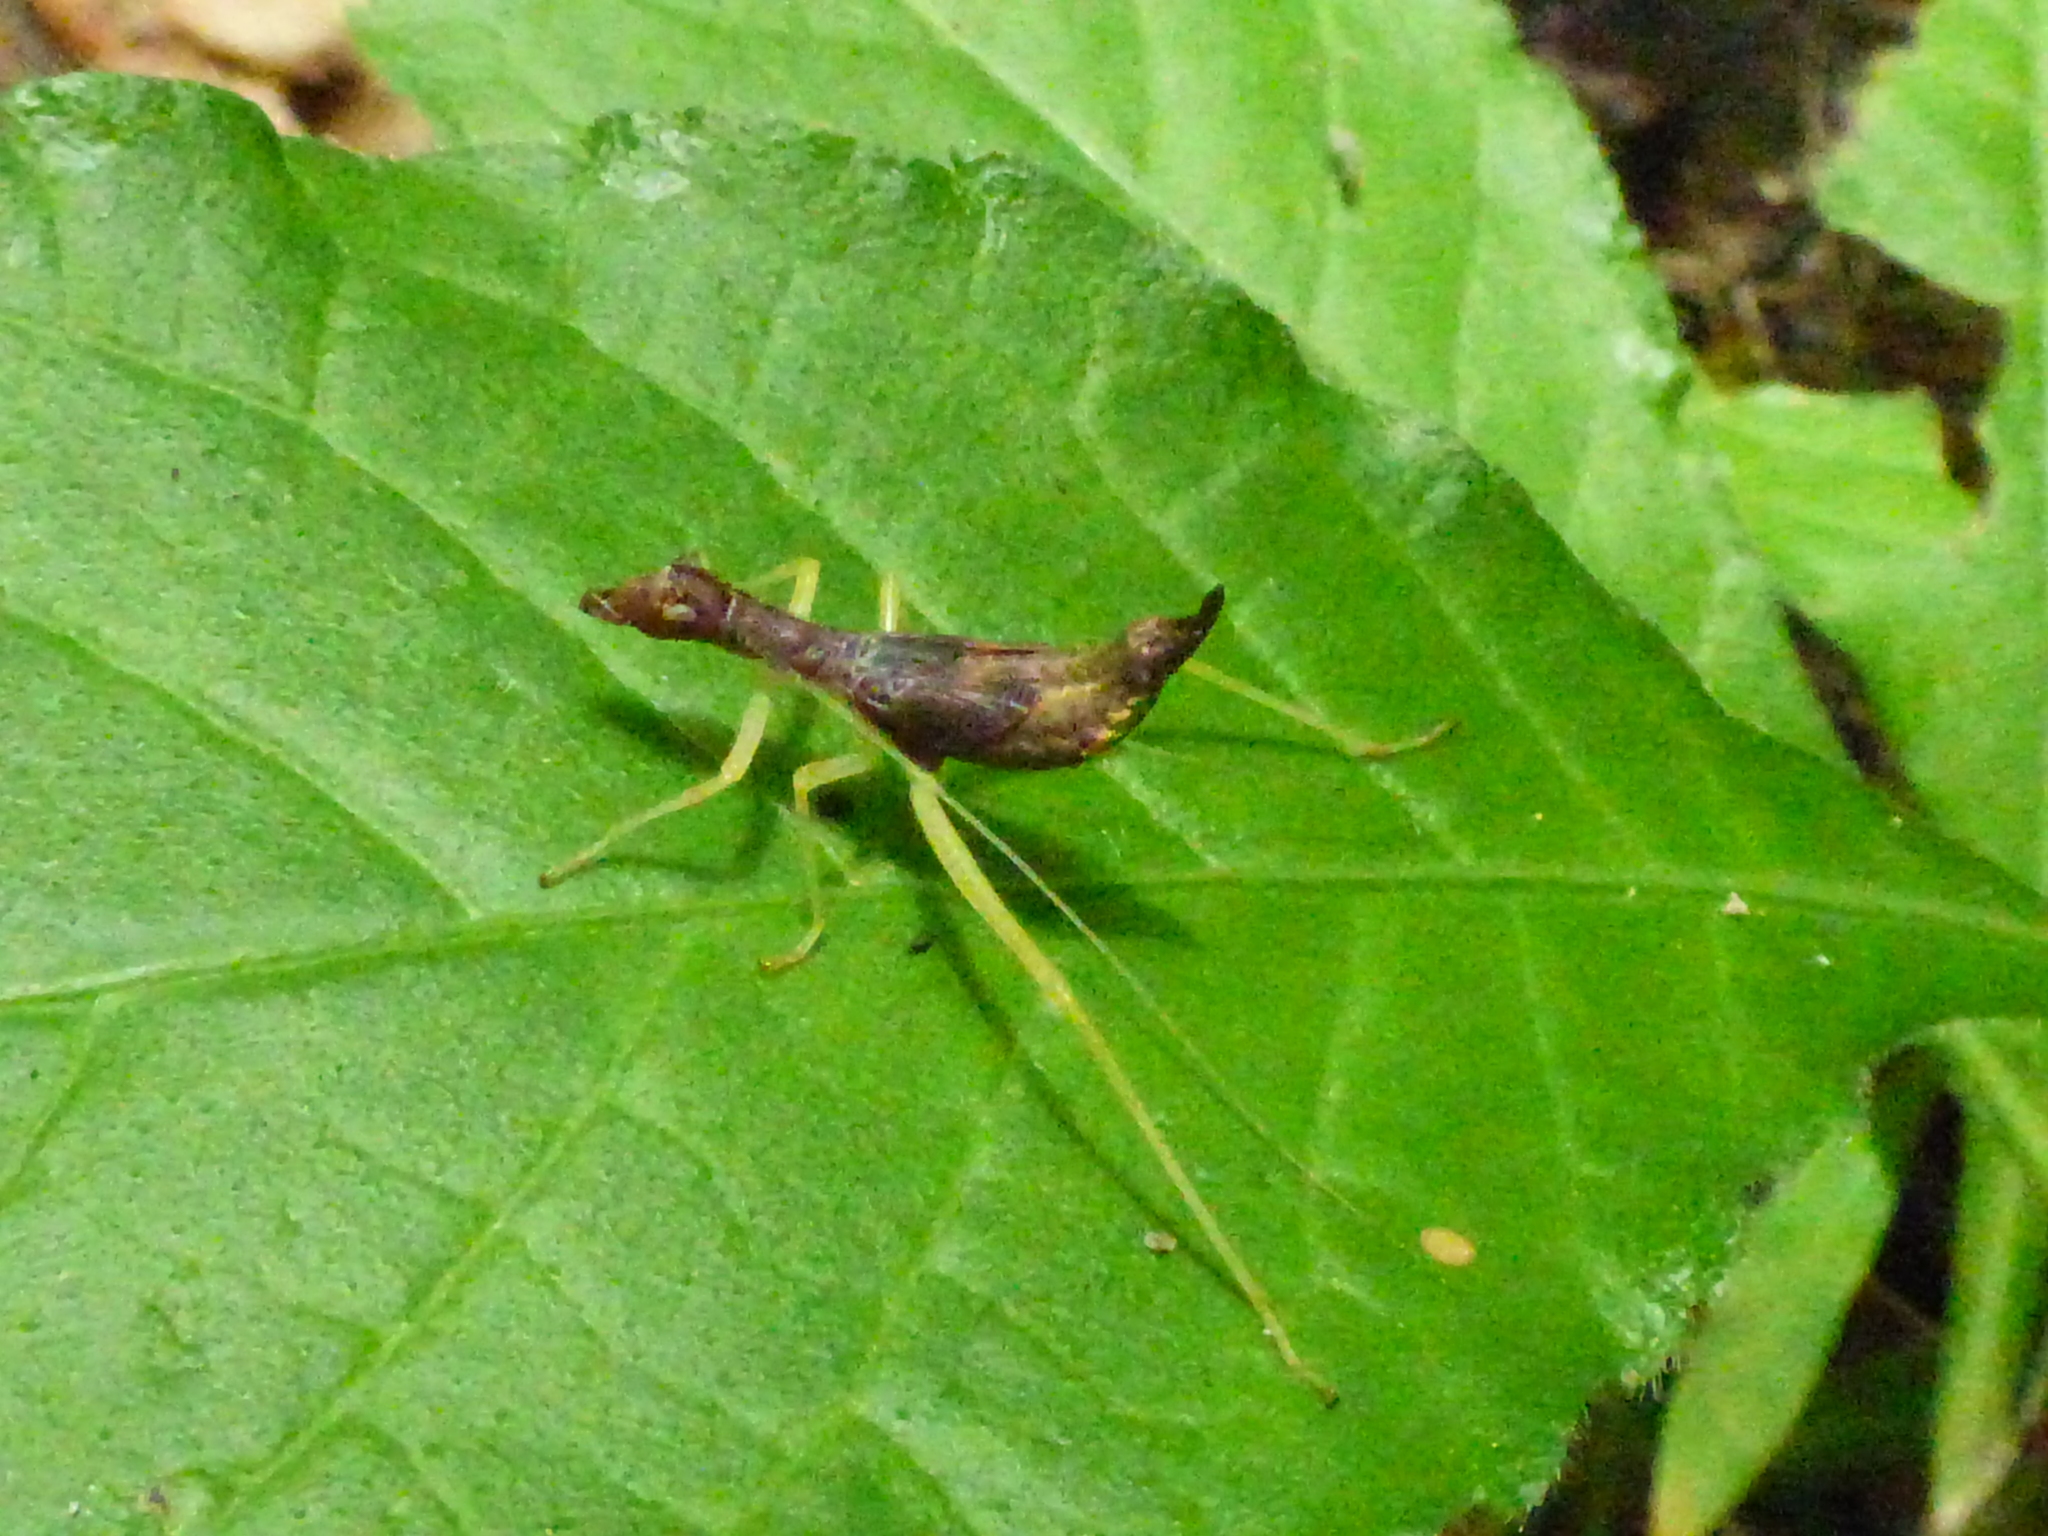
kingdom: Animalia
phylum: Arthropoda
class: Insecta
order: Orthoptera
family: Gryllidae
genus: Neoxabea
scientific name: Neoxabea bipunctata
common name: Two-spotted tree cricket
